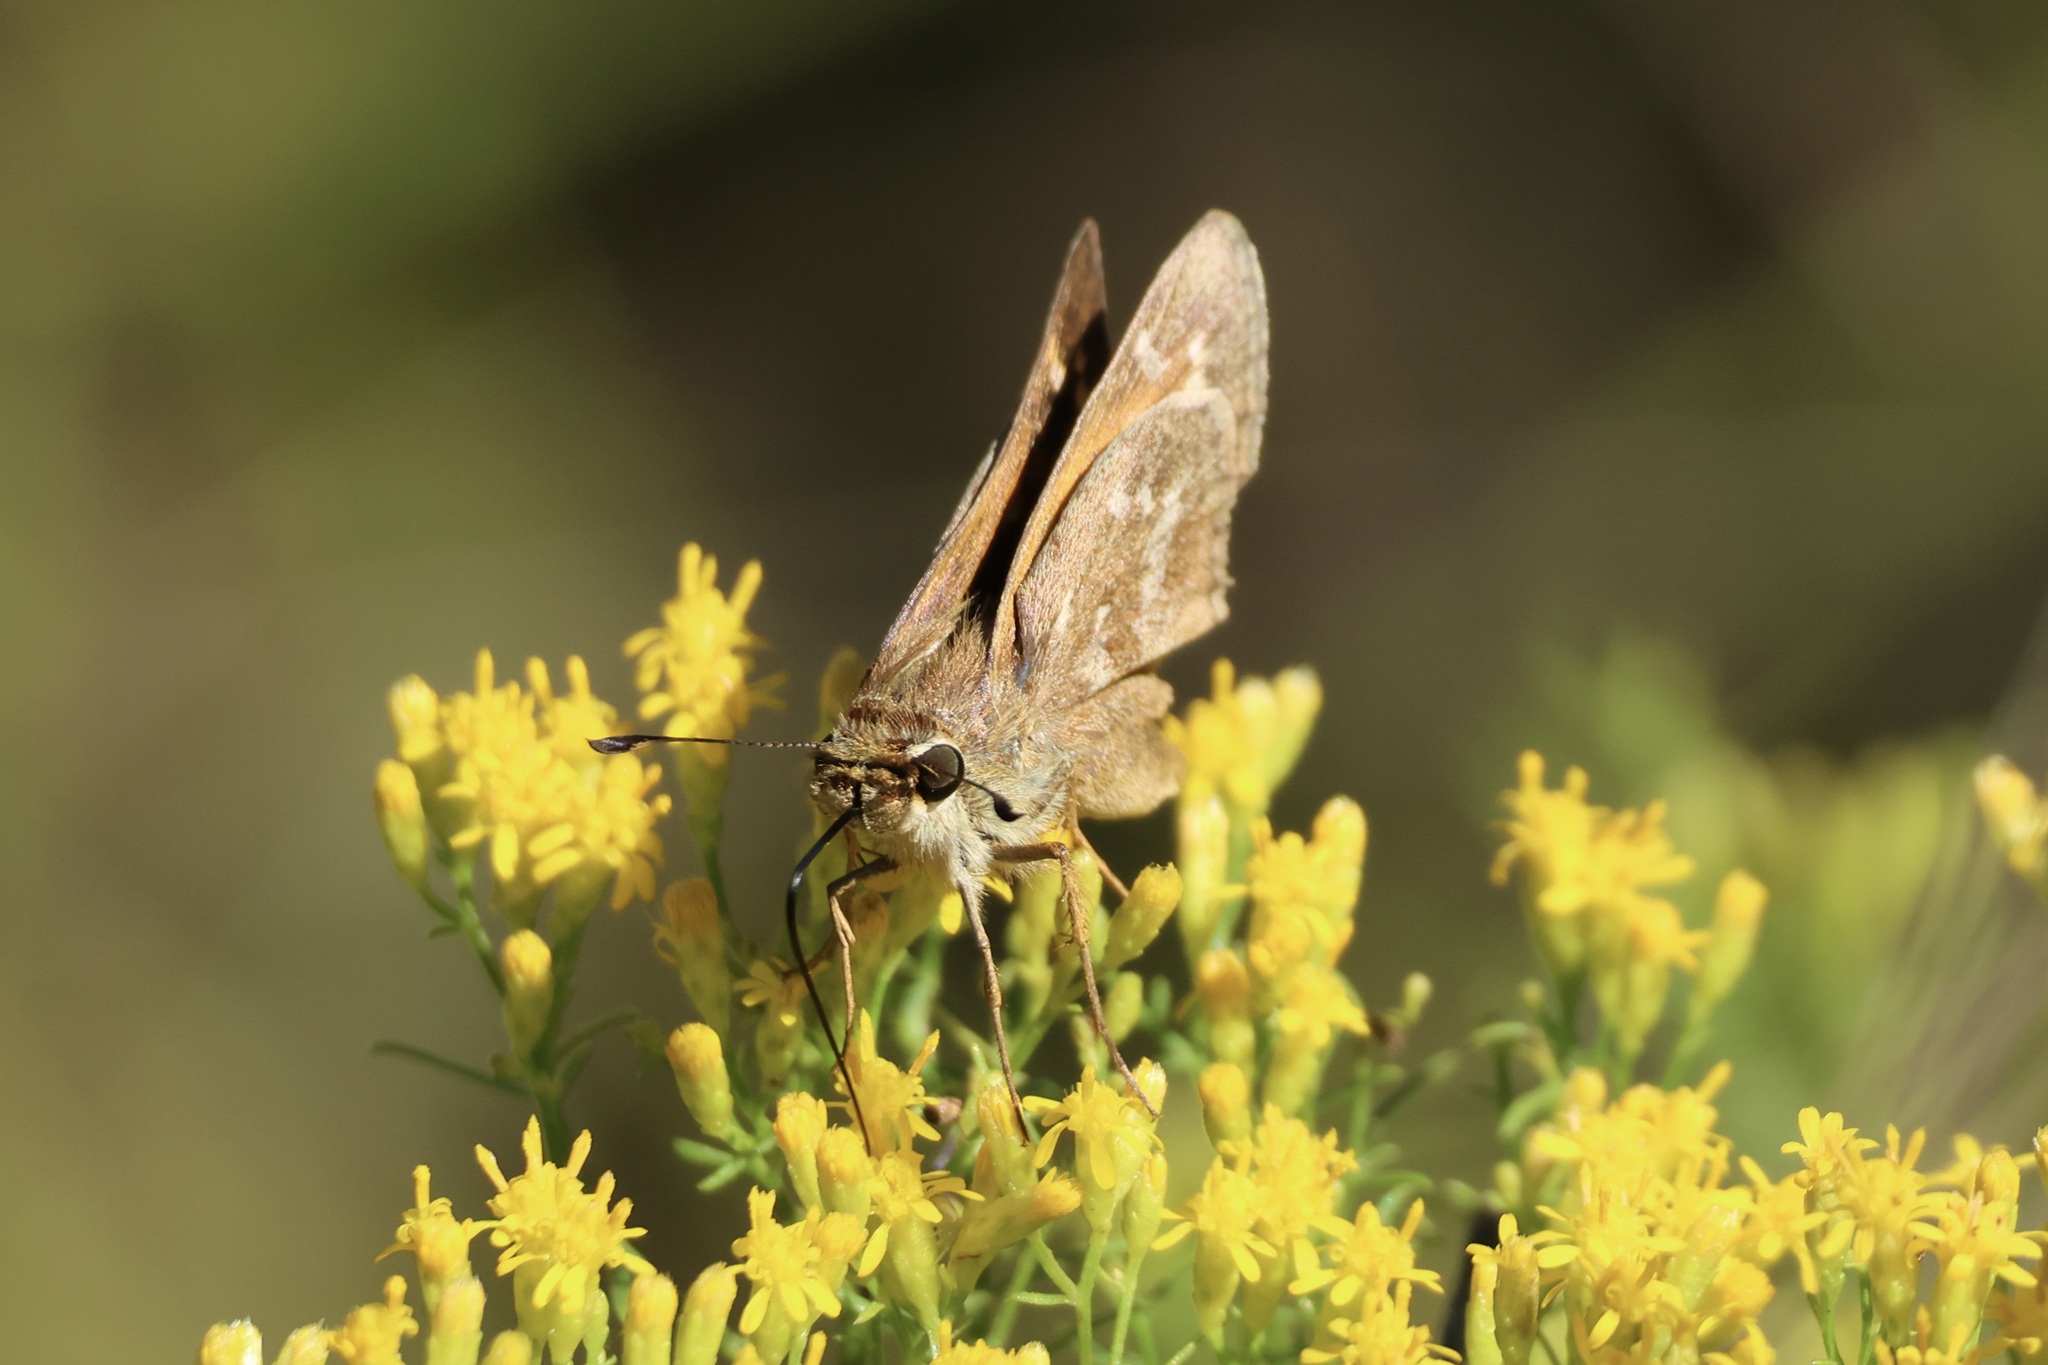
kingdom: Animalia
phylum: Arthropoda
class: Insecta
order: Lepidoptera
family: Hesperiidae
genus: Atalopedes
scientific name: Atalopedes
